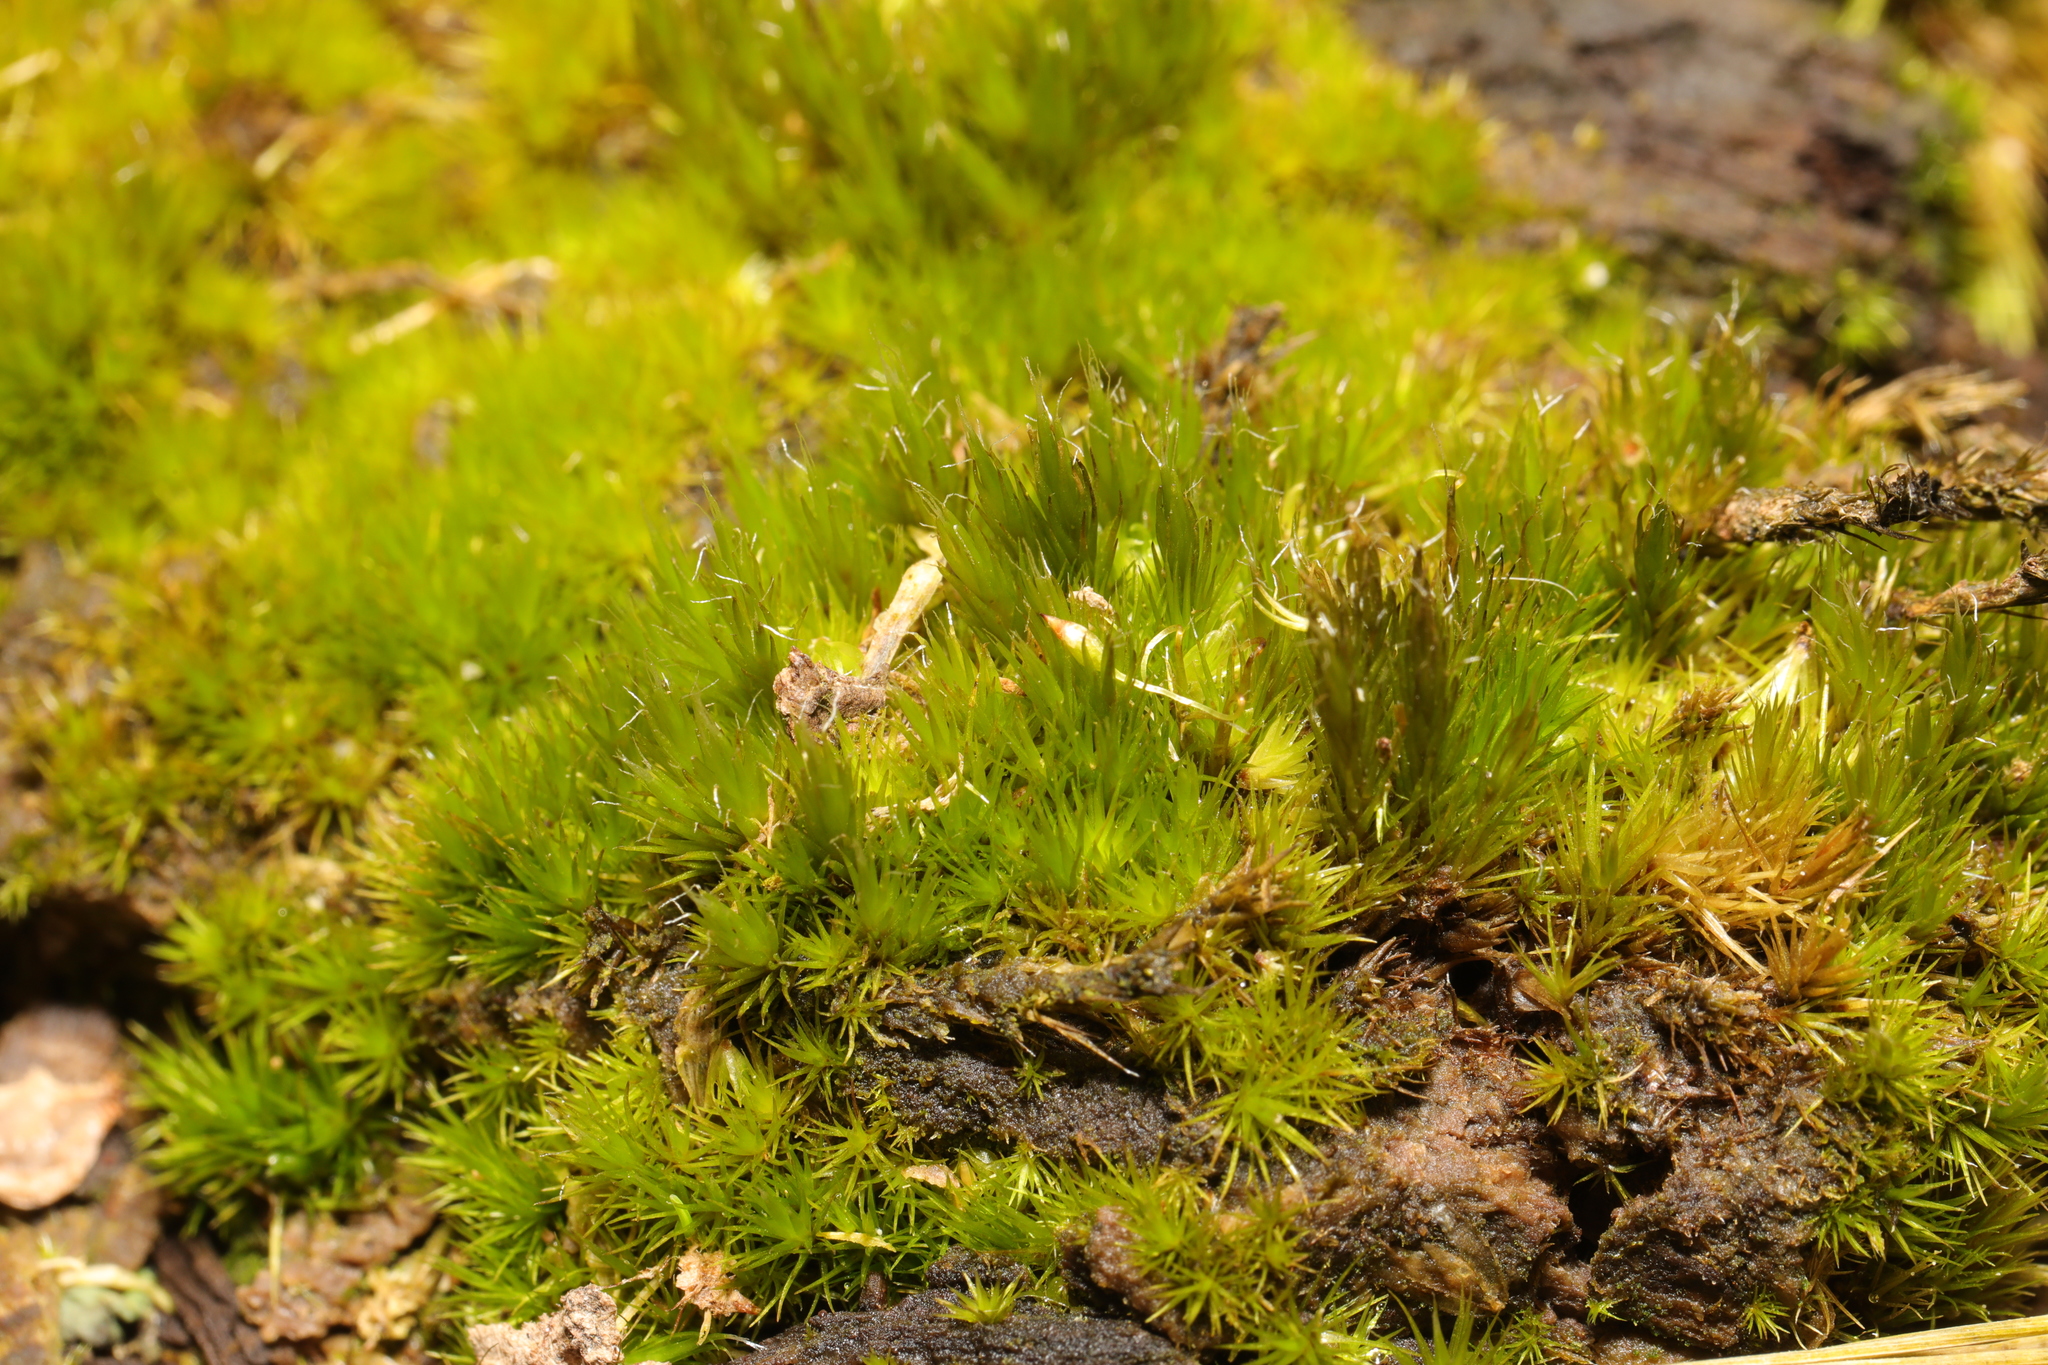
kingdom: Plantae
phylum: Bryophyta
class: Bryopsida
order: Dicranales
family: Leucobryaceae
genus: Campylopus
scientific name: Campylopus introflexus
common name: Heath star moss
